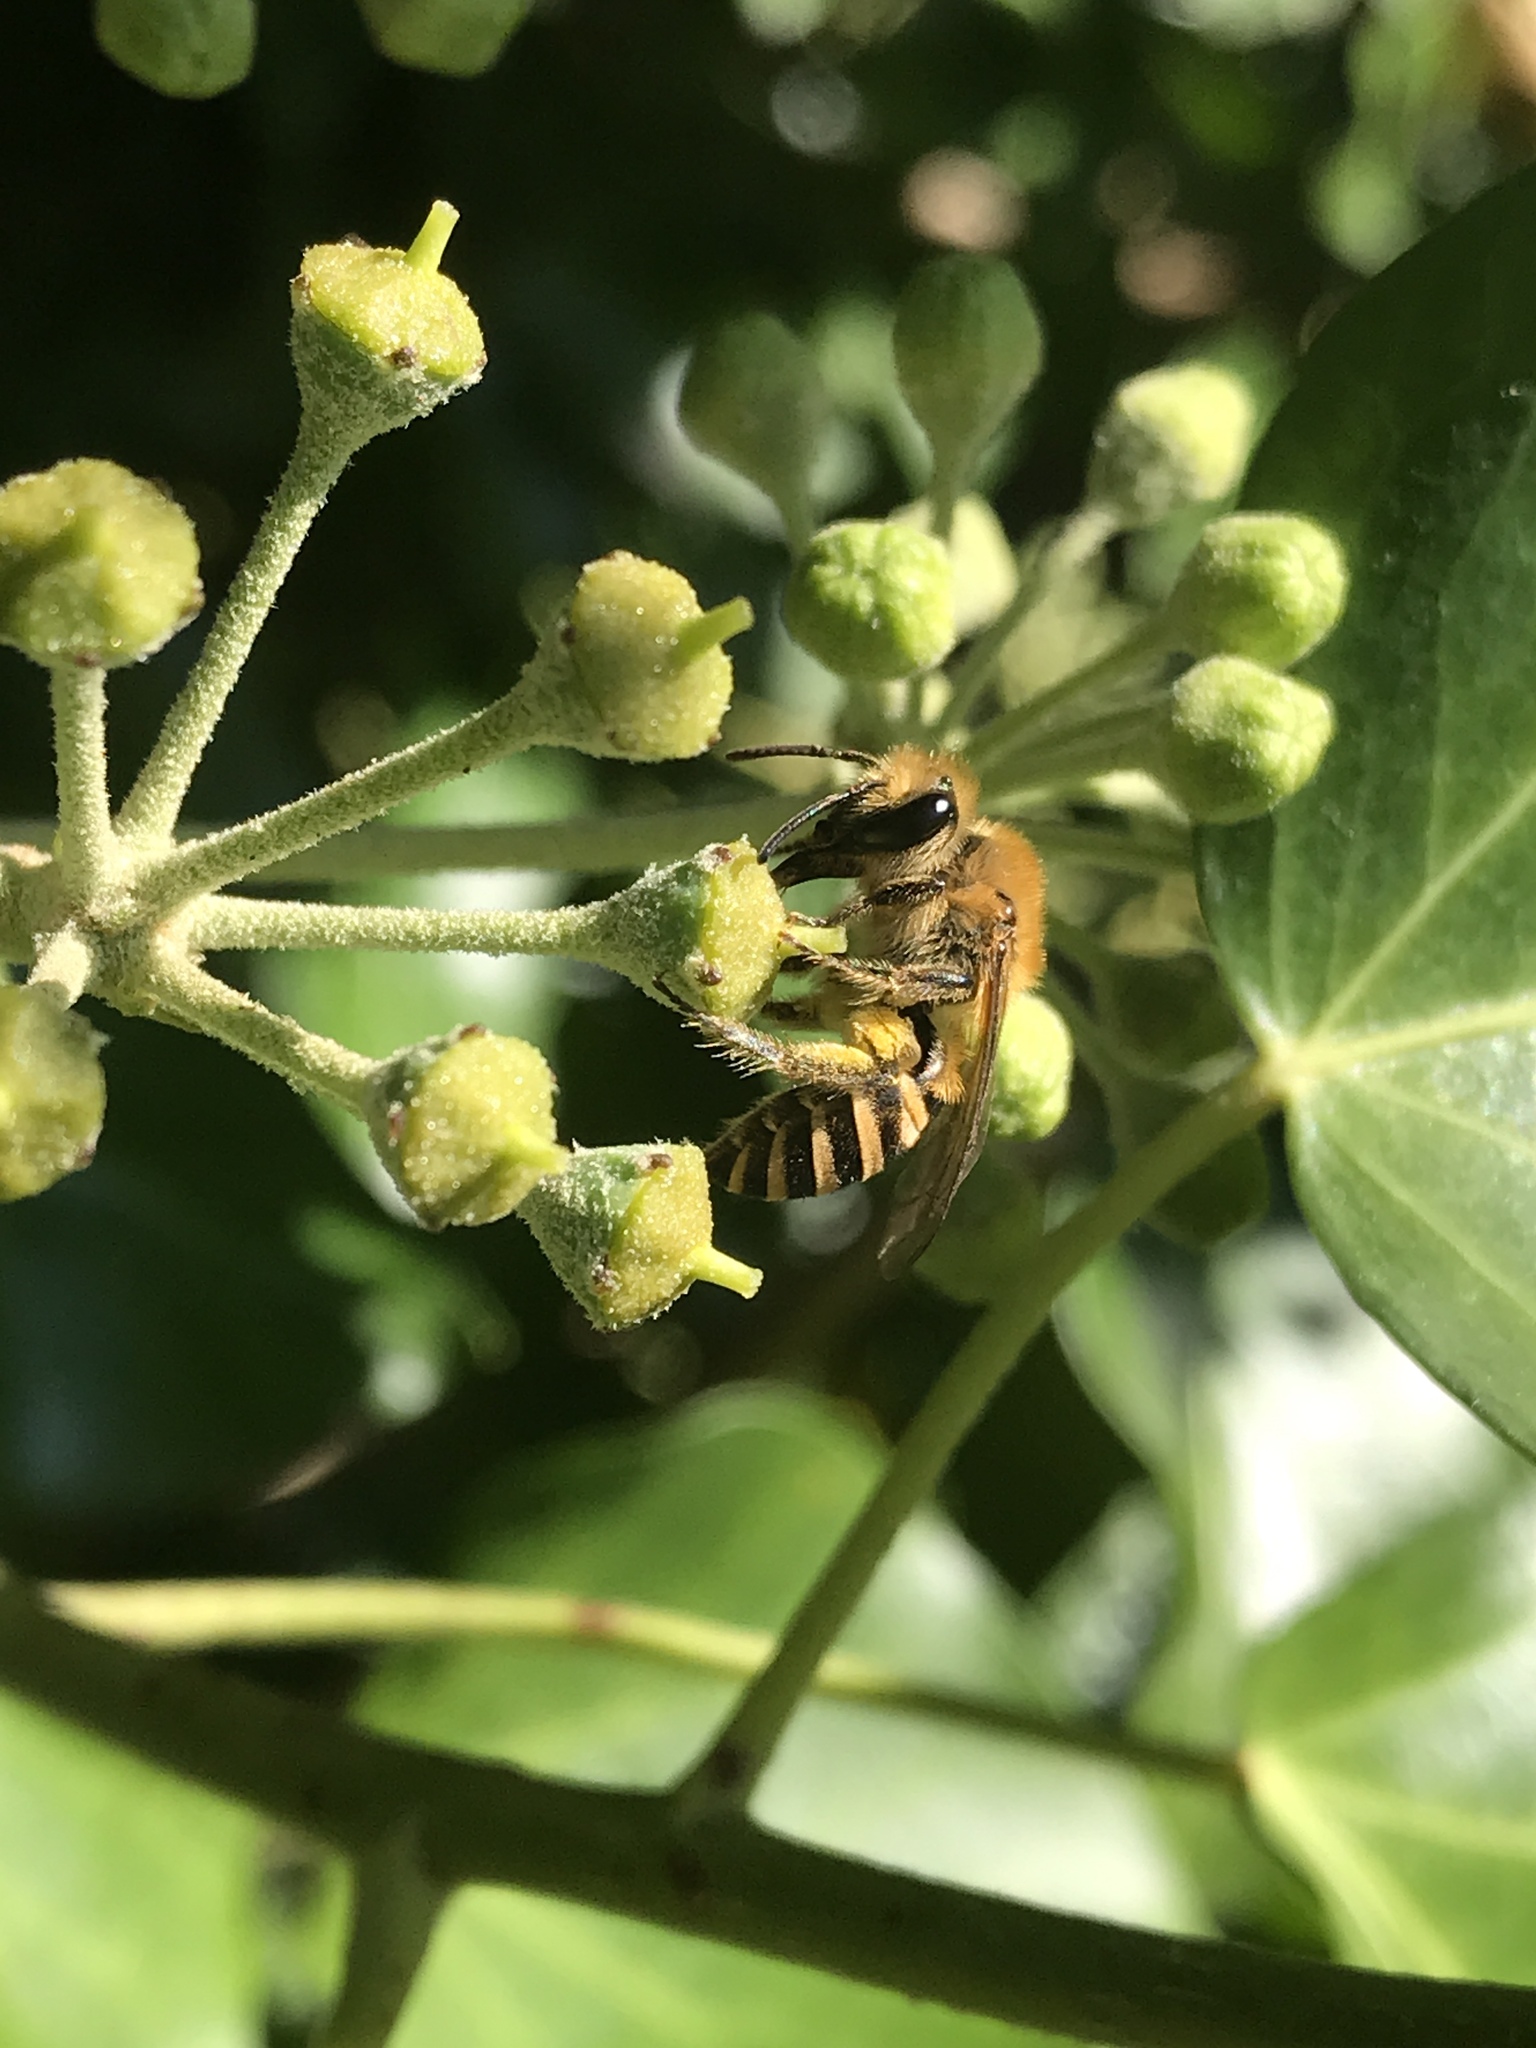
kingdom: Animalia
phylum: Arthropoda
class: Insecta
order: Hymenoptera
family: Colletidae
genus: Colletes
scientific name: Colletes hederae
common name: Ivy bee
